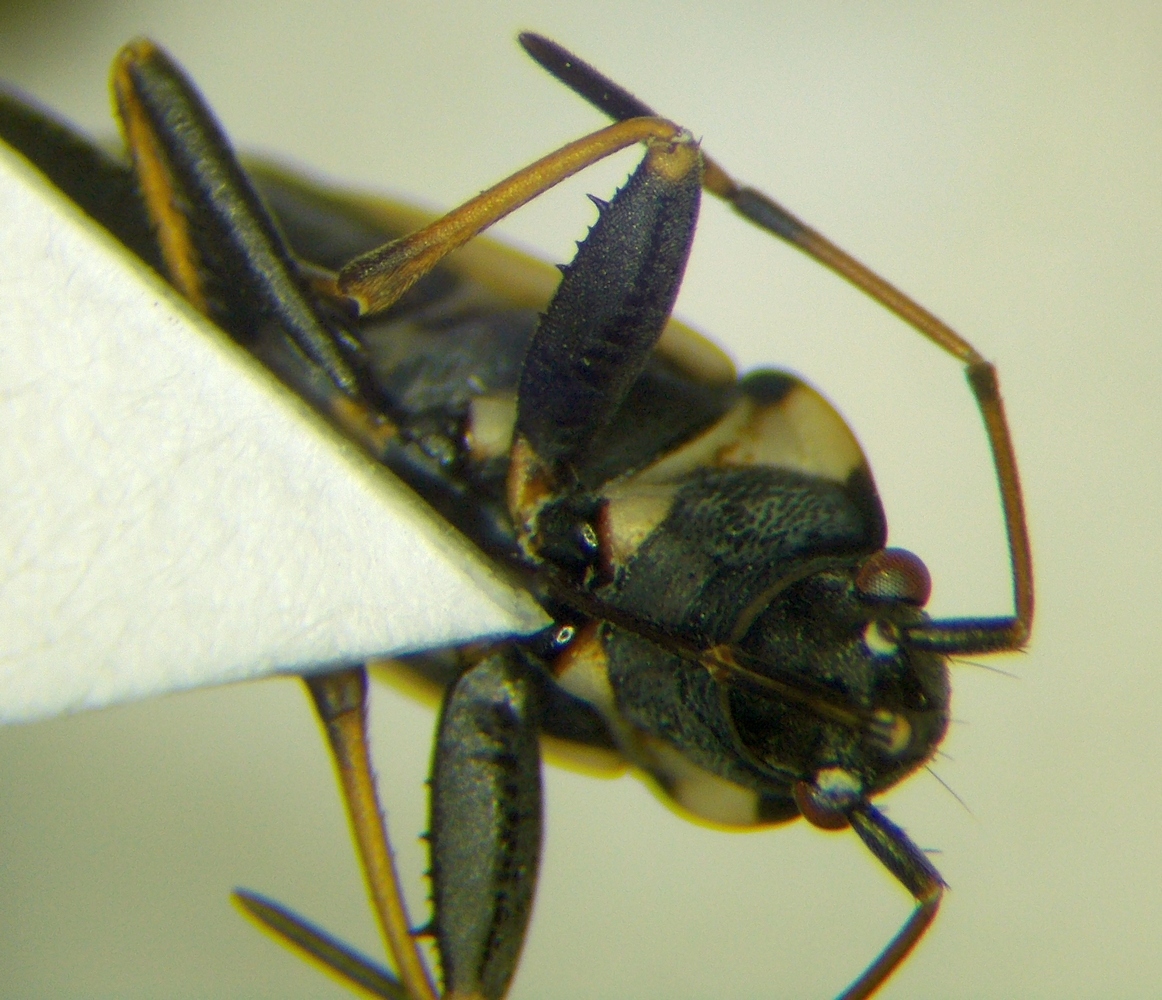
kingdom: Animalia
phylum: Arthropoda
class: Insecta
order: Hemiptera
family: Rhyparochromidae
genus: Raglius
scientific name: Raglius confusus
